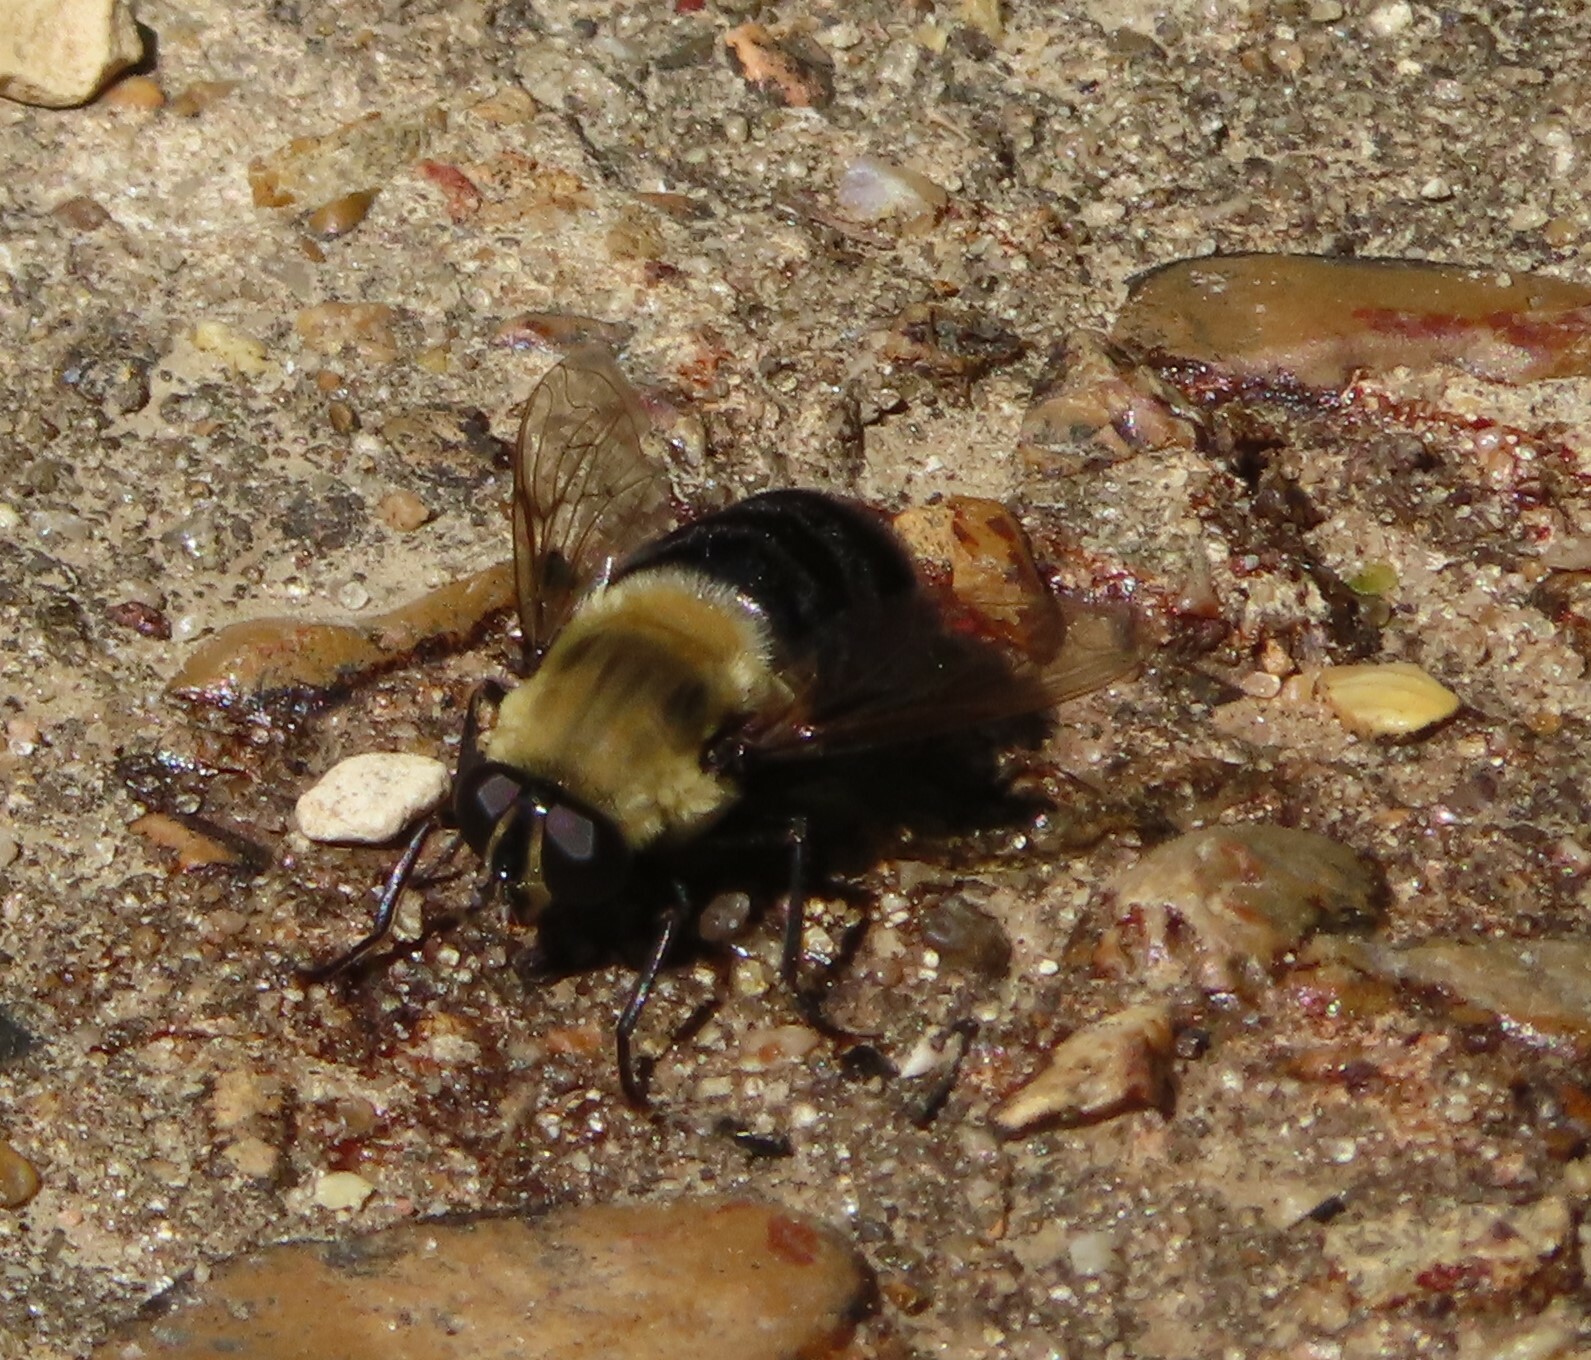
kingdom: Animalia
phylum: Arthropoda
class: Insecta
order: Diptera
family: Syrphidae
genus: Imatisma
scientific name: Imatisma bautias
